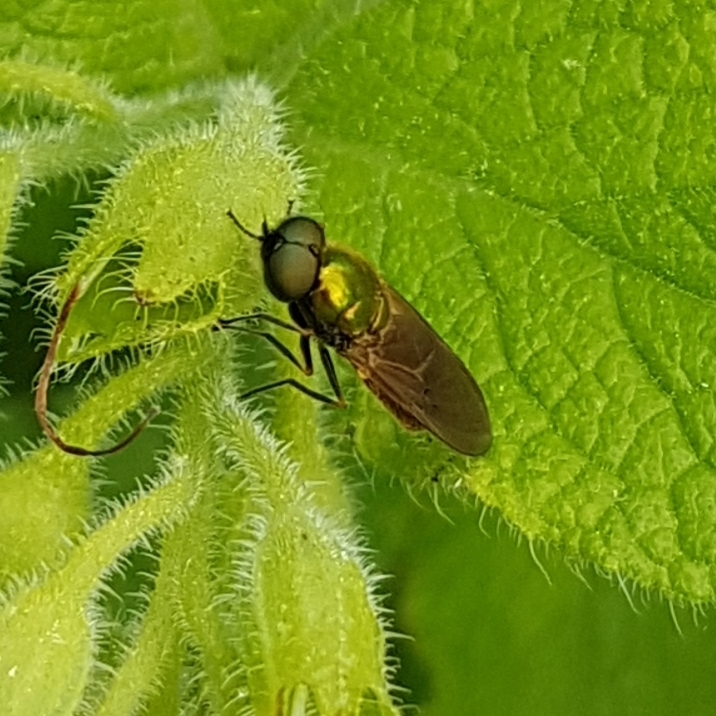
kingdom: Animalia
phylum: Arthropoda
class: Insecta
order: Diptera
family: Stratiomyidae
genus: Chloromyia
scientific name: Chloromyia formosa
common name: Soldier fly
